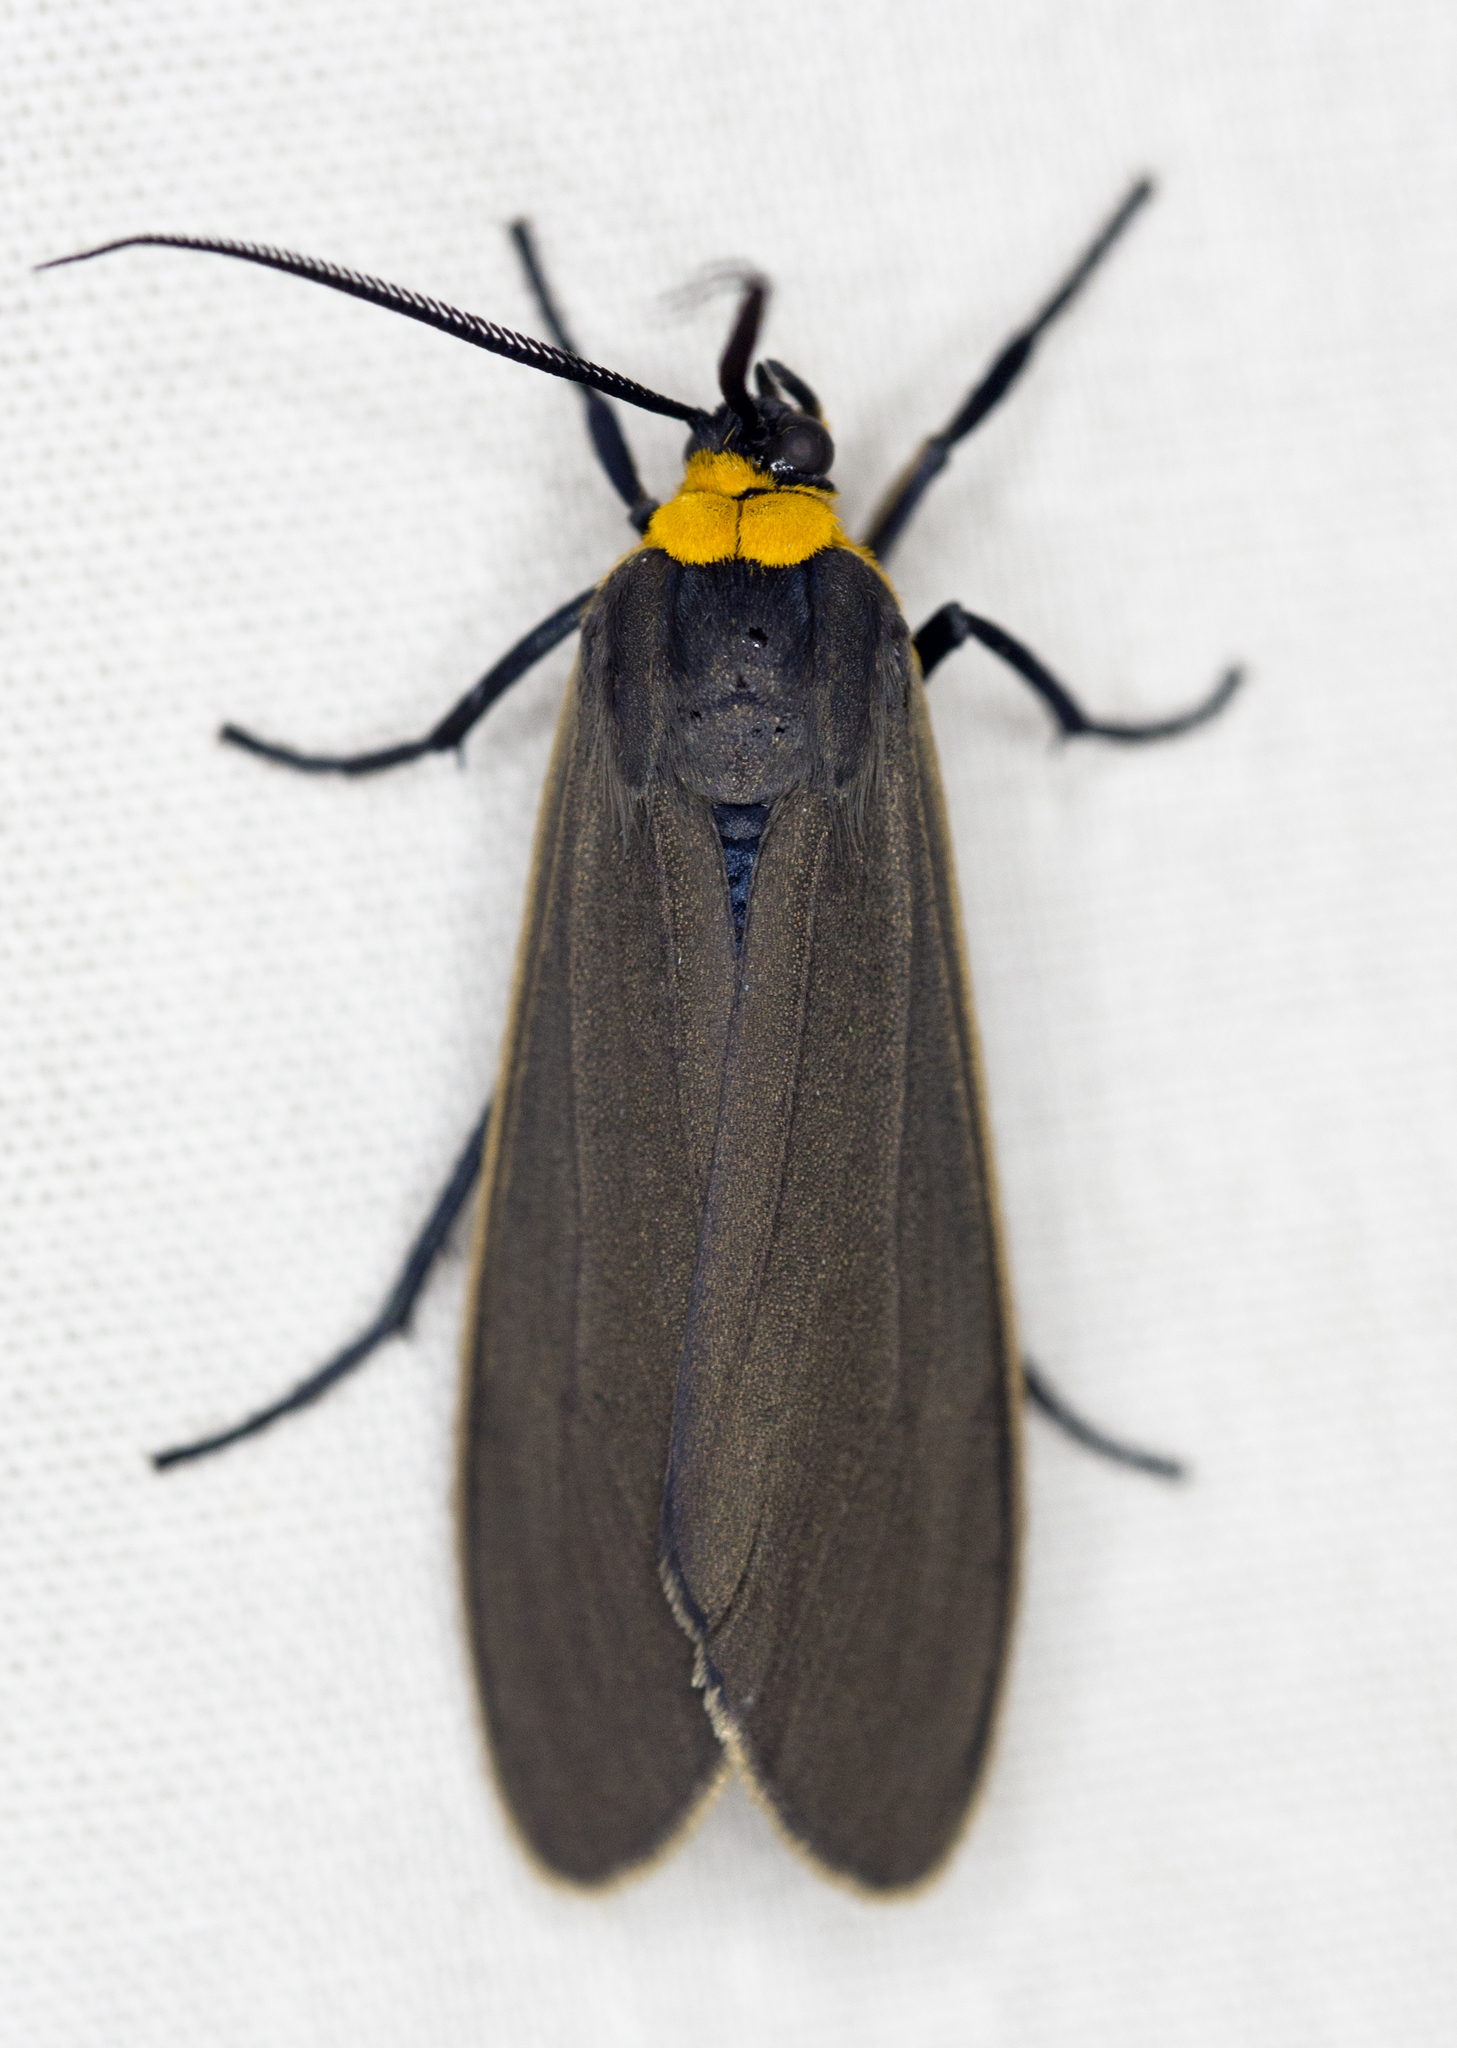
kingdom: Animalia
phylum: Arthropoda
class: Insecta
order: Lepidoptera
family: Erebidae
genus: Cisseps
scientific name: Cisseps fulvicollis
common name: Yellow-collared scape moth
